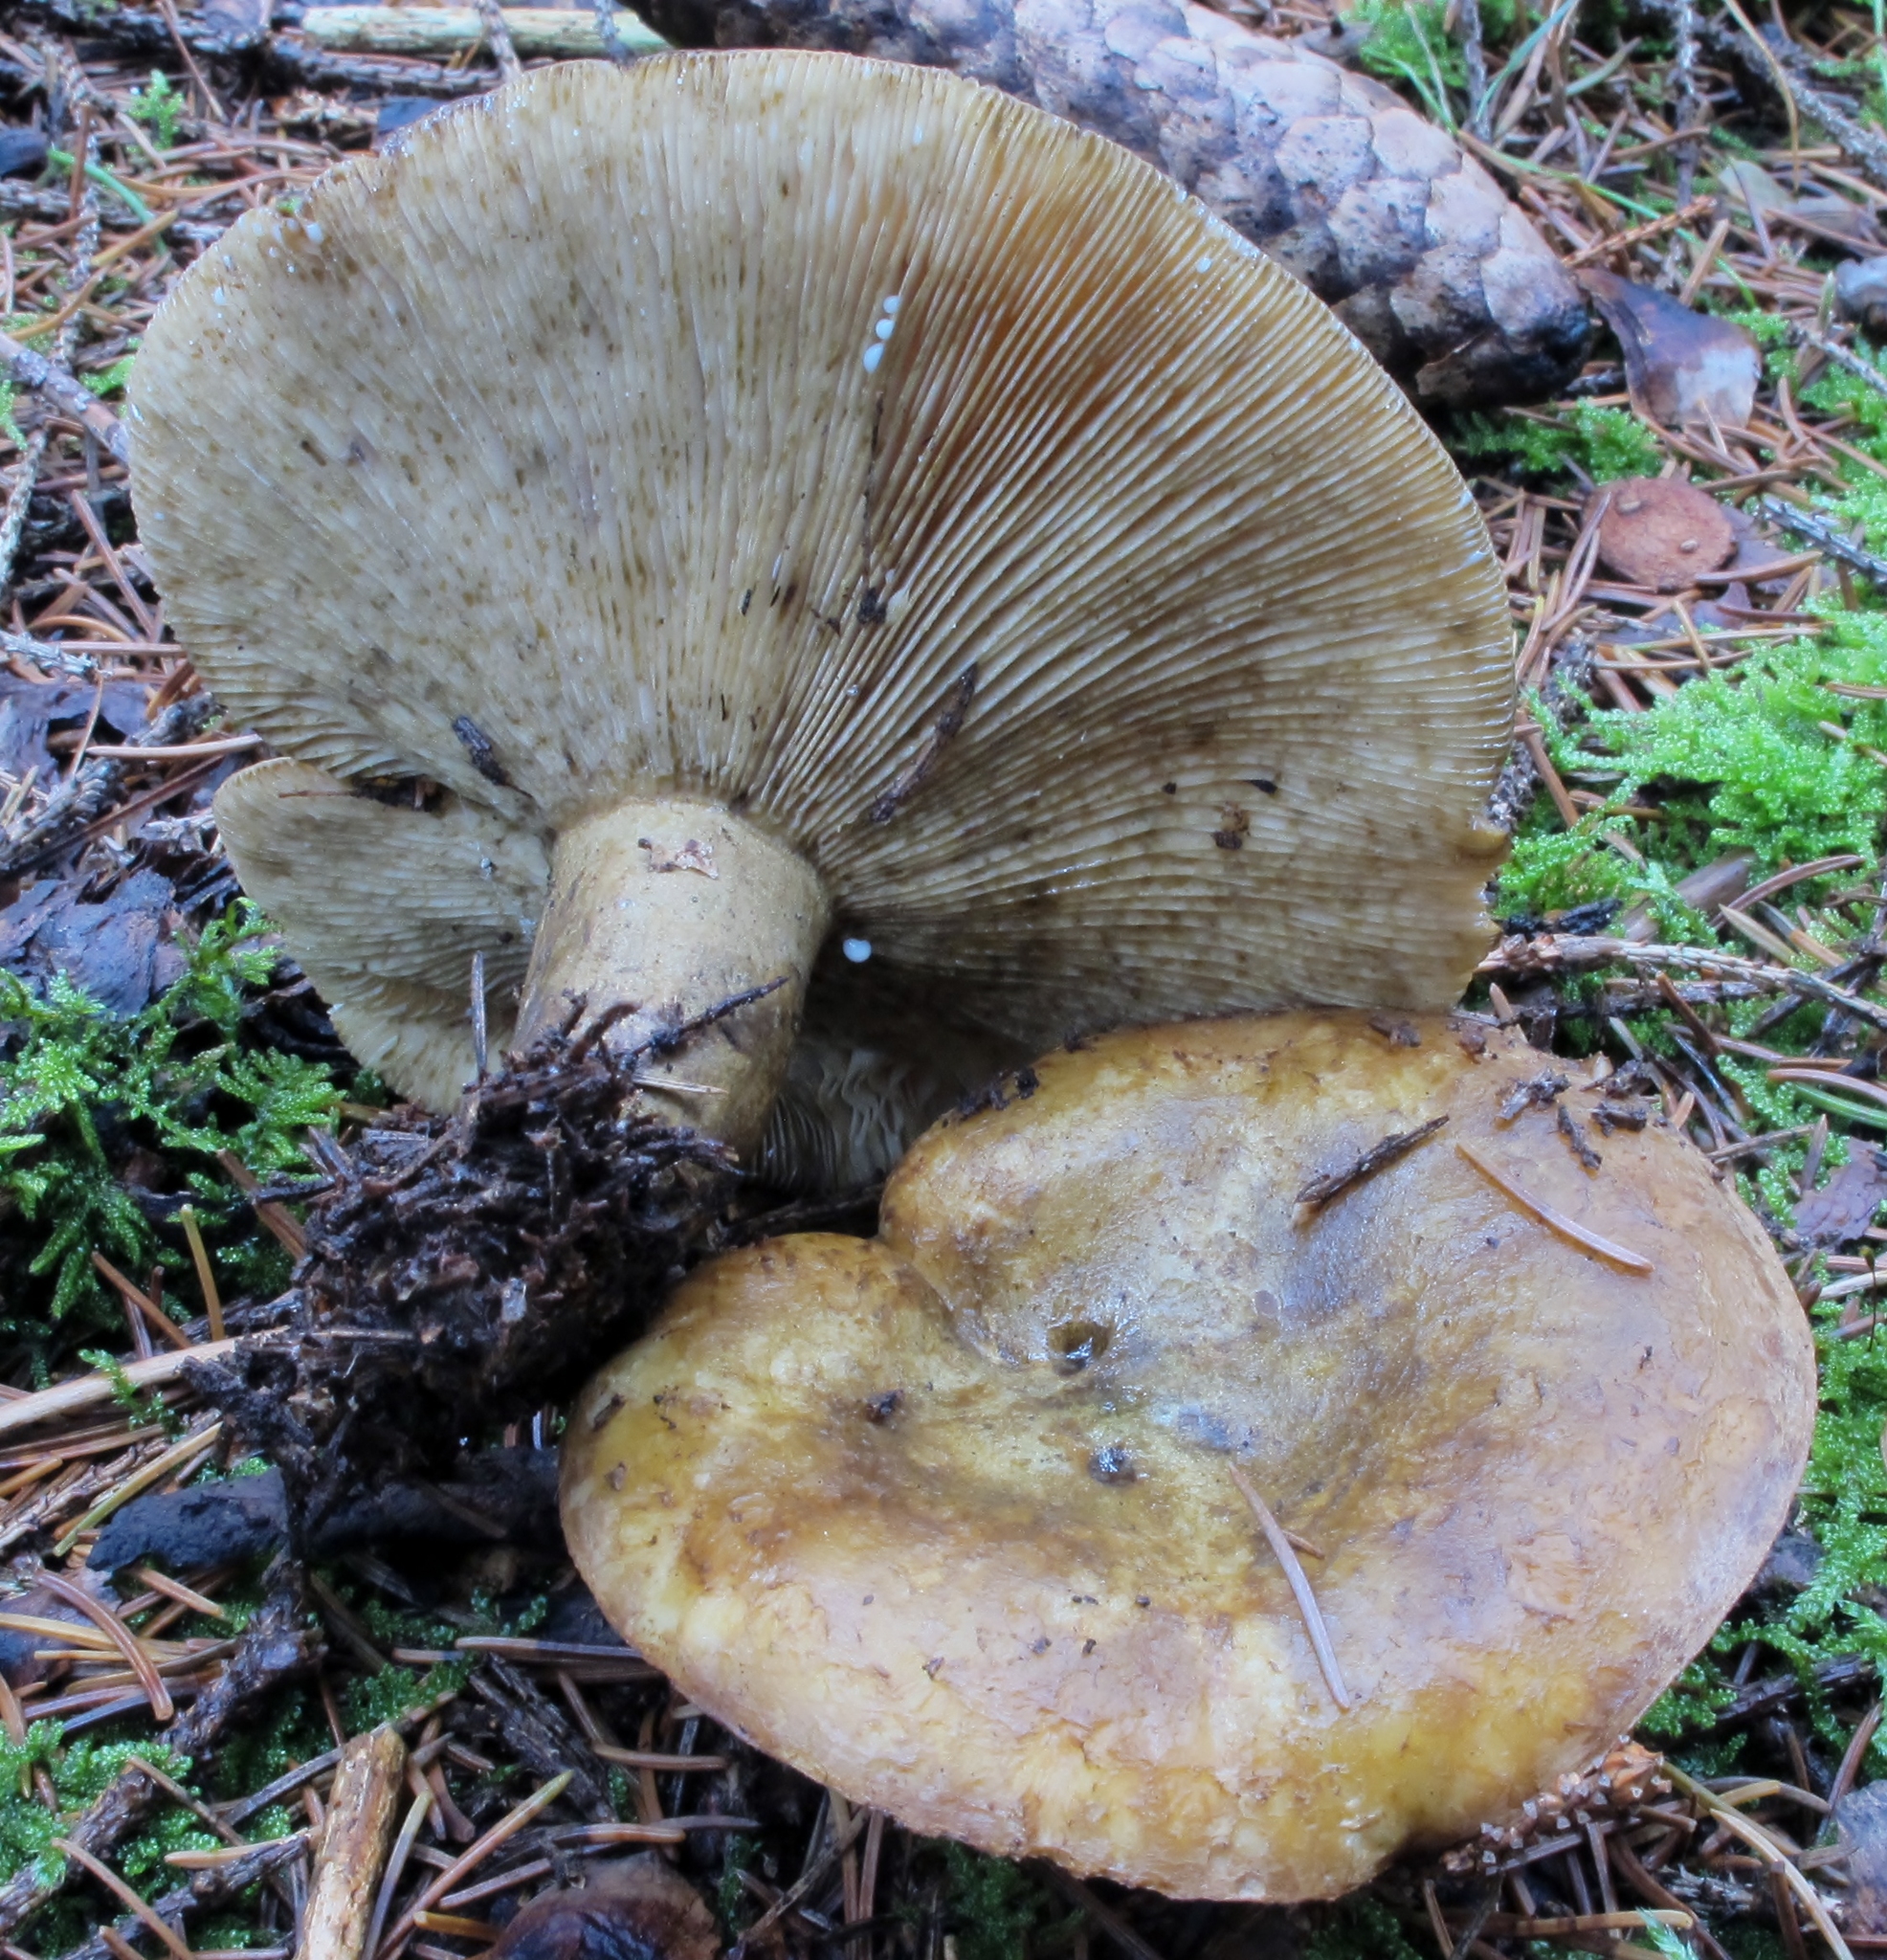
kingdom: Fungi
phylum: Basidiomycota
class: Agaricomycetes
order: Russulales
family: Russulaceae
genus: Lactarius
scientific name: Lactarius sordidus
